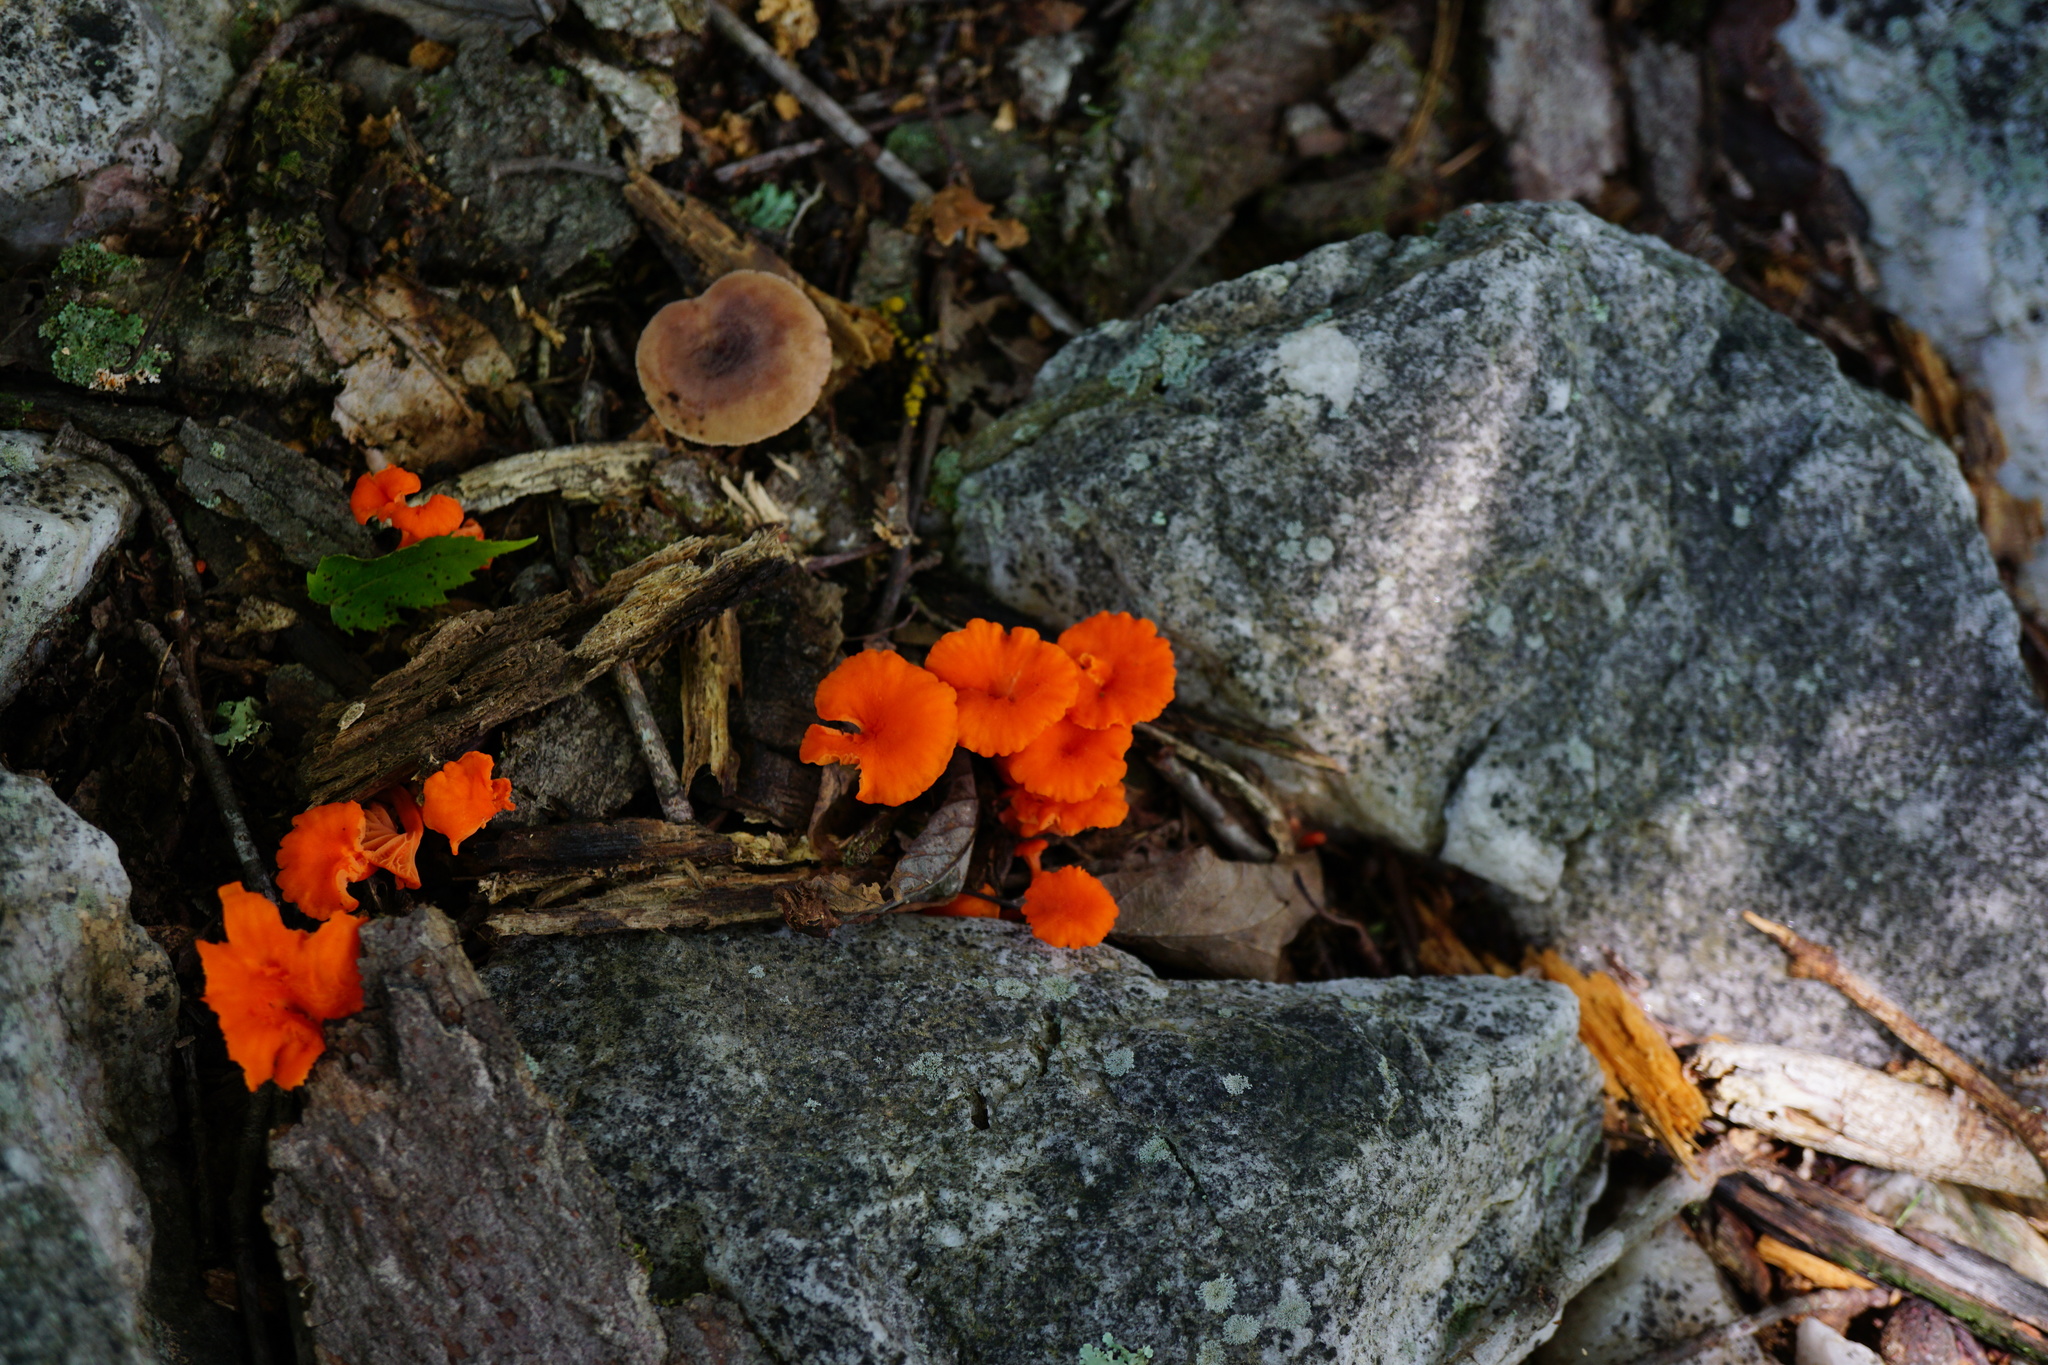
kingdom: Fungi
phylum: Basidiomycota
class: Agaricomycetes
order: Cantharellales
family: Hydnaceae
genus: Cantharellus
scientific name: Cantharellus cinnabarinus
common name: Cinnabar chanterelle
